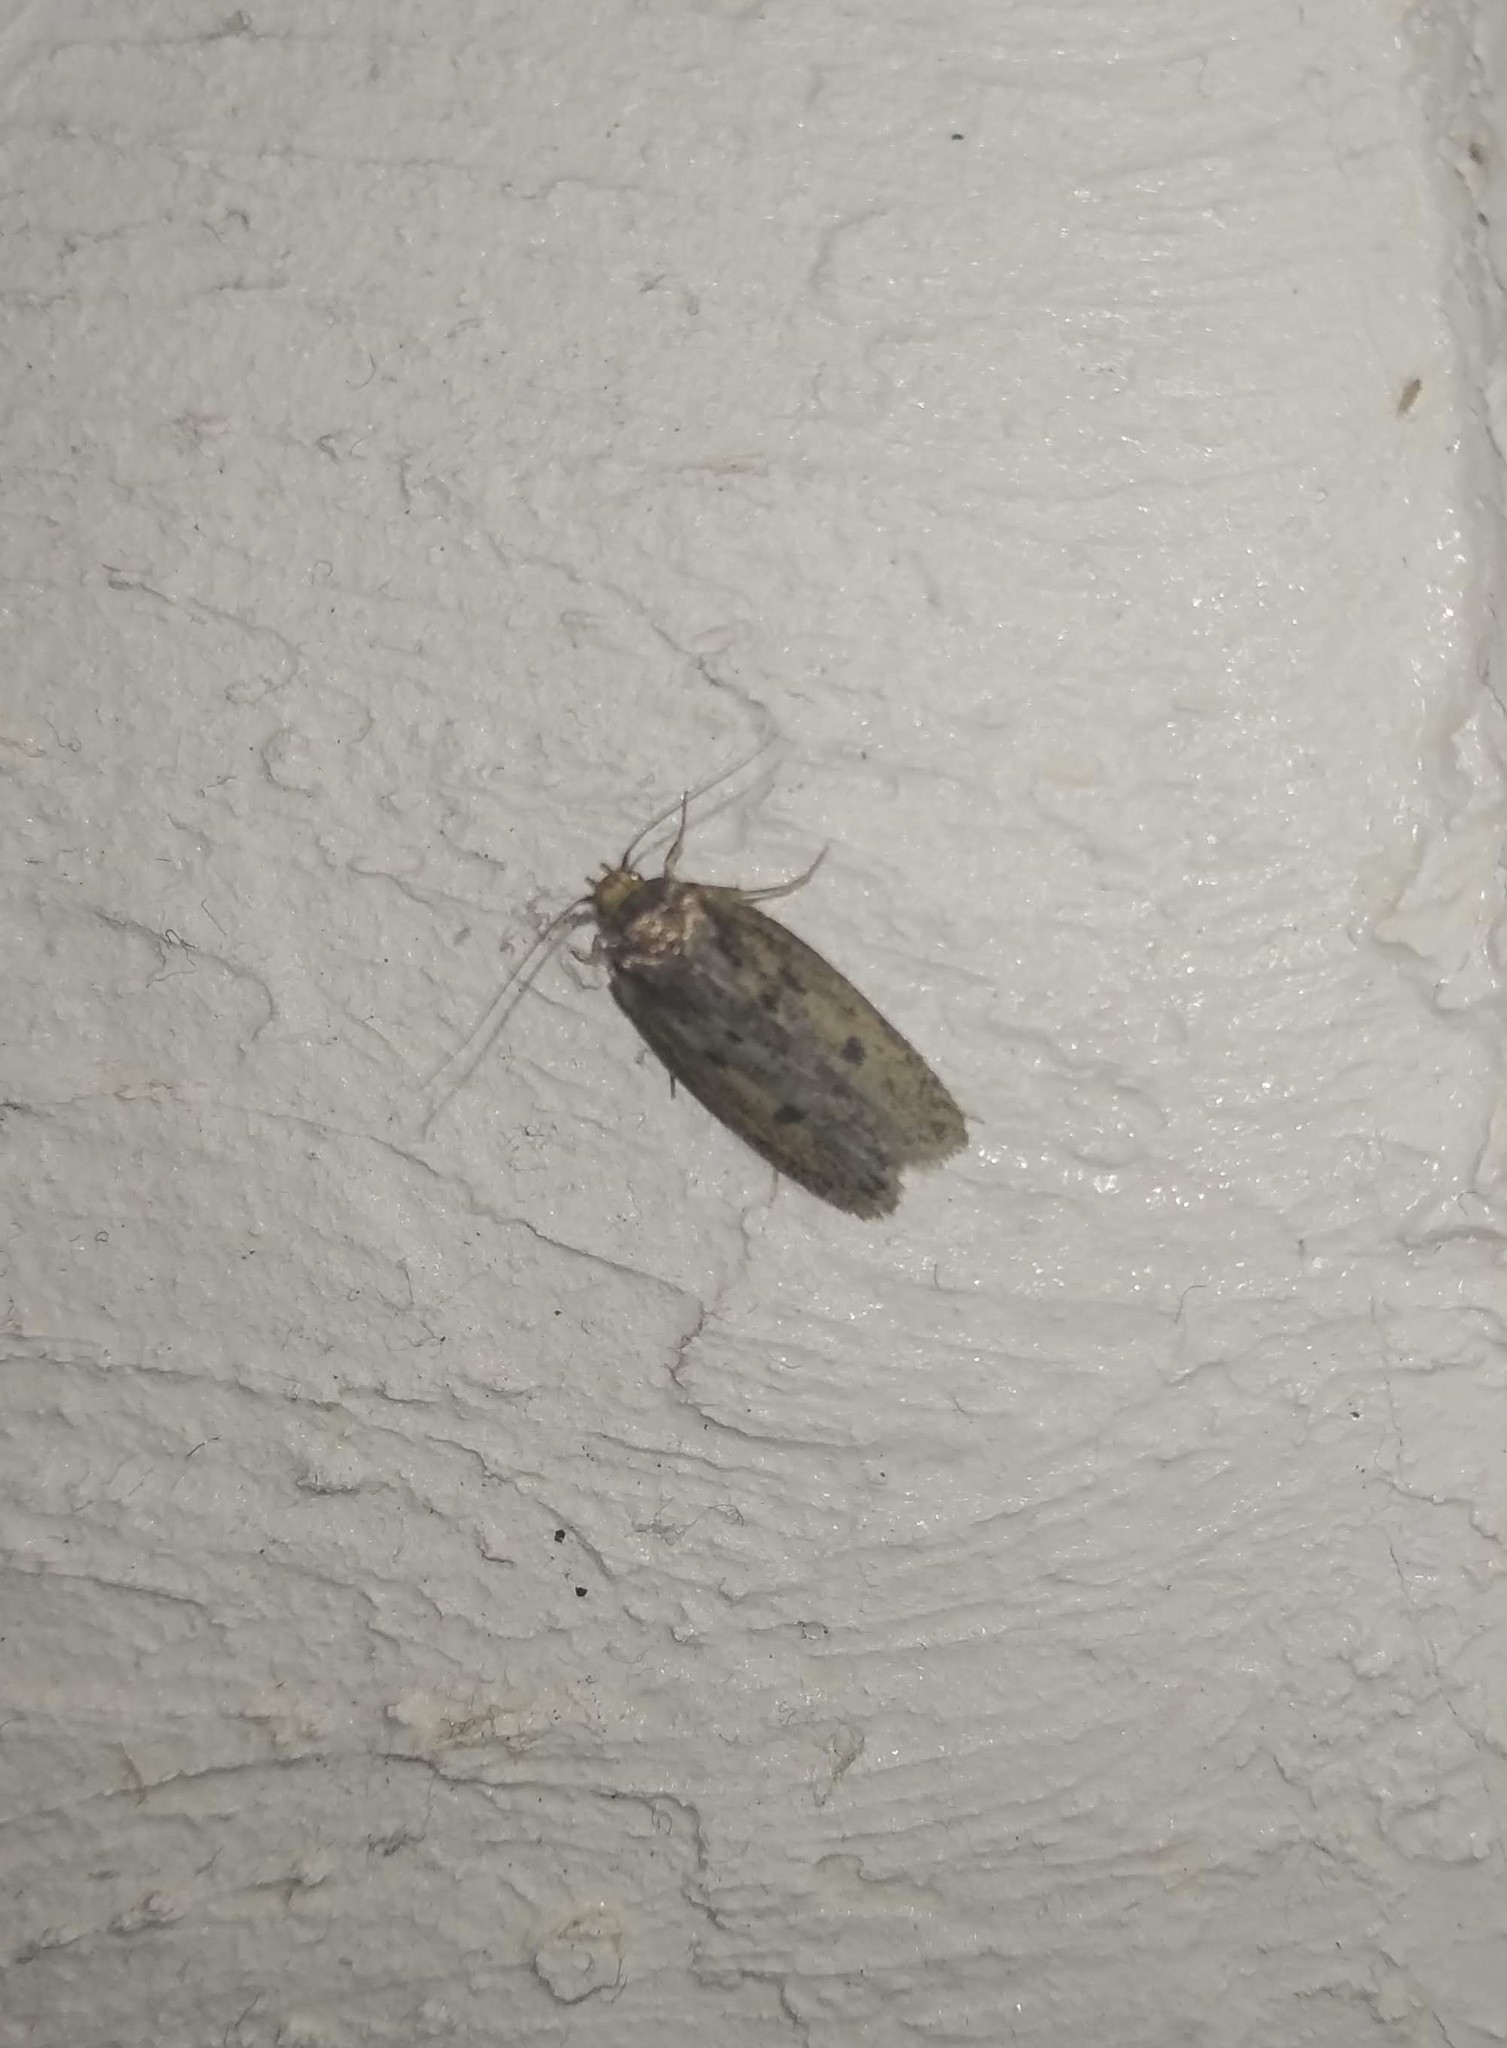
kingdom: Animalia
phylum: Arthropoda
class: Insecta
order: Lepidoptera
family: Oecophoridae
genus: Hofmannophila
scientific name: Hofmannophila pseudospretella
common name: Brown house moth
